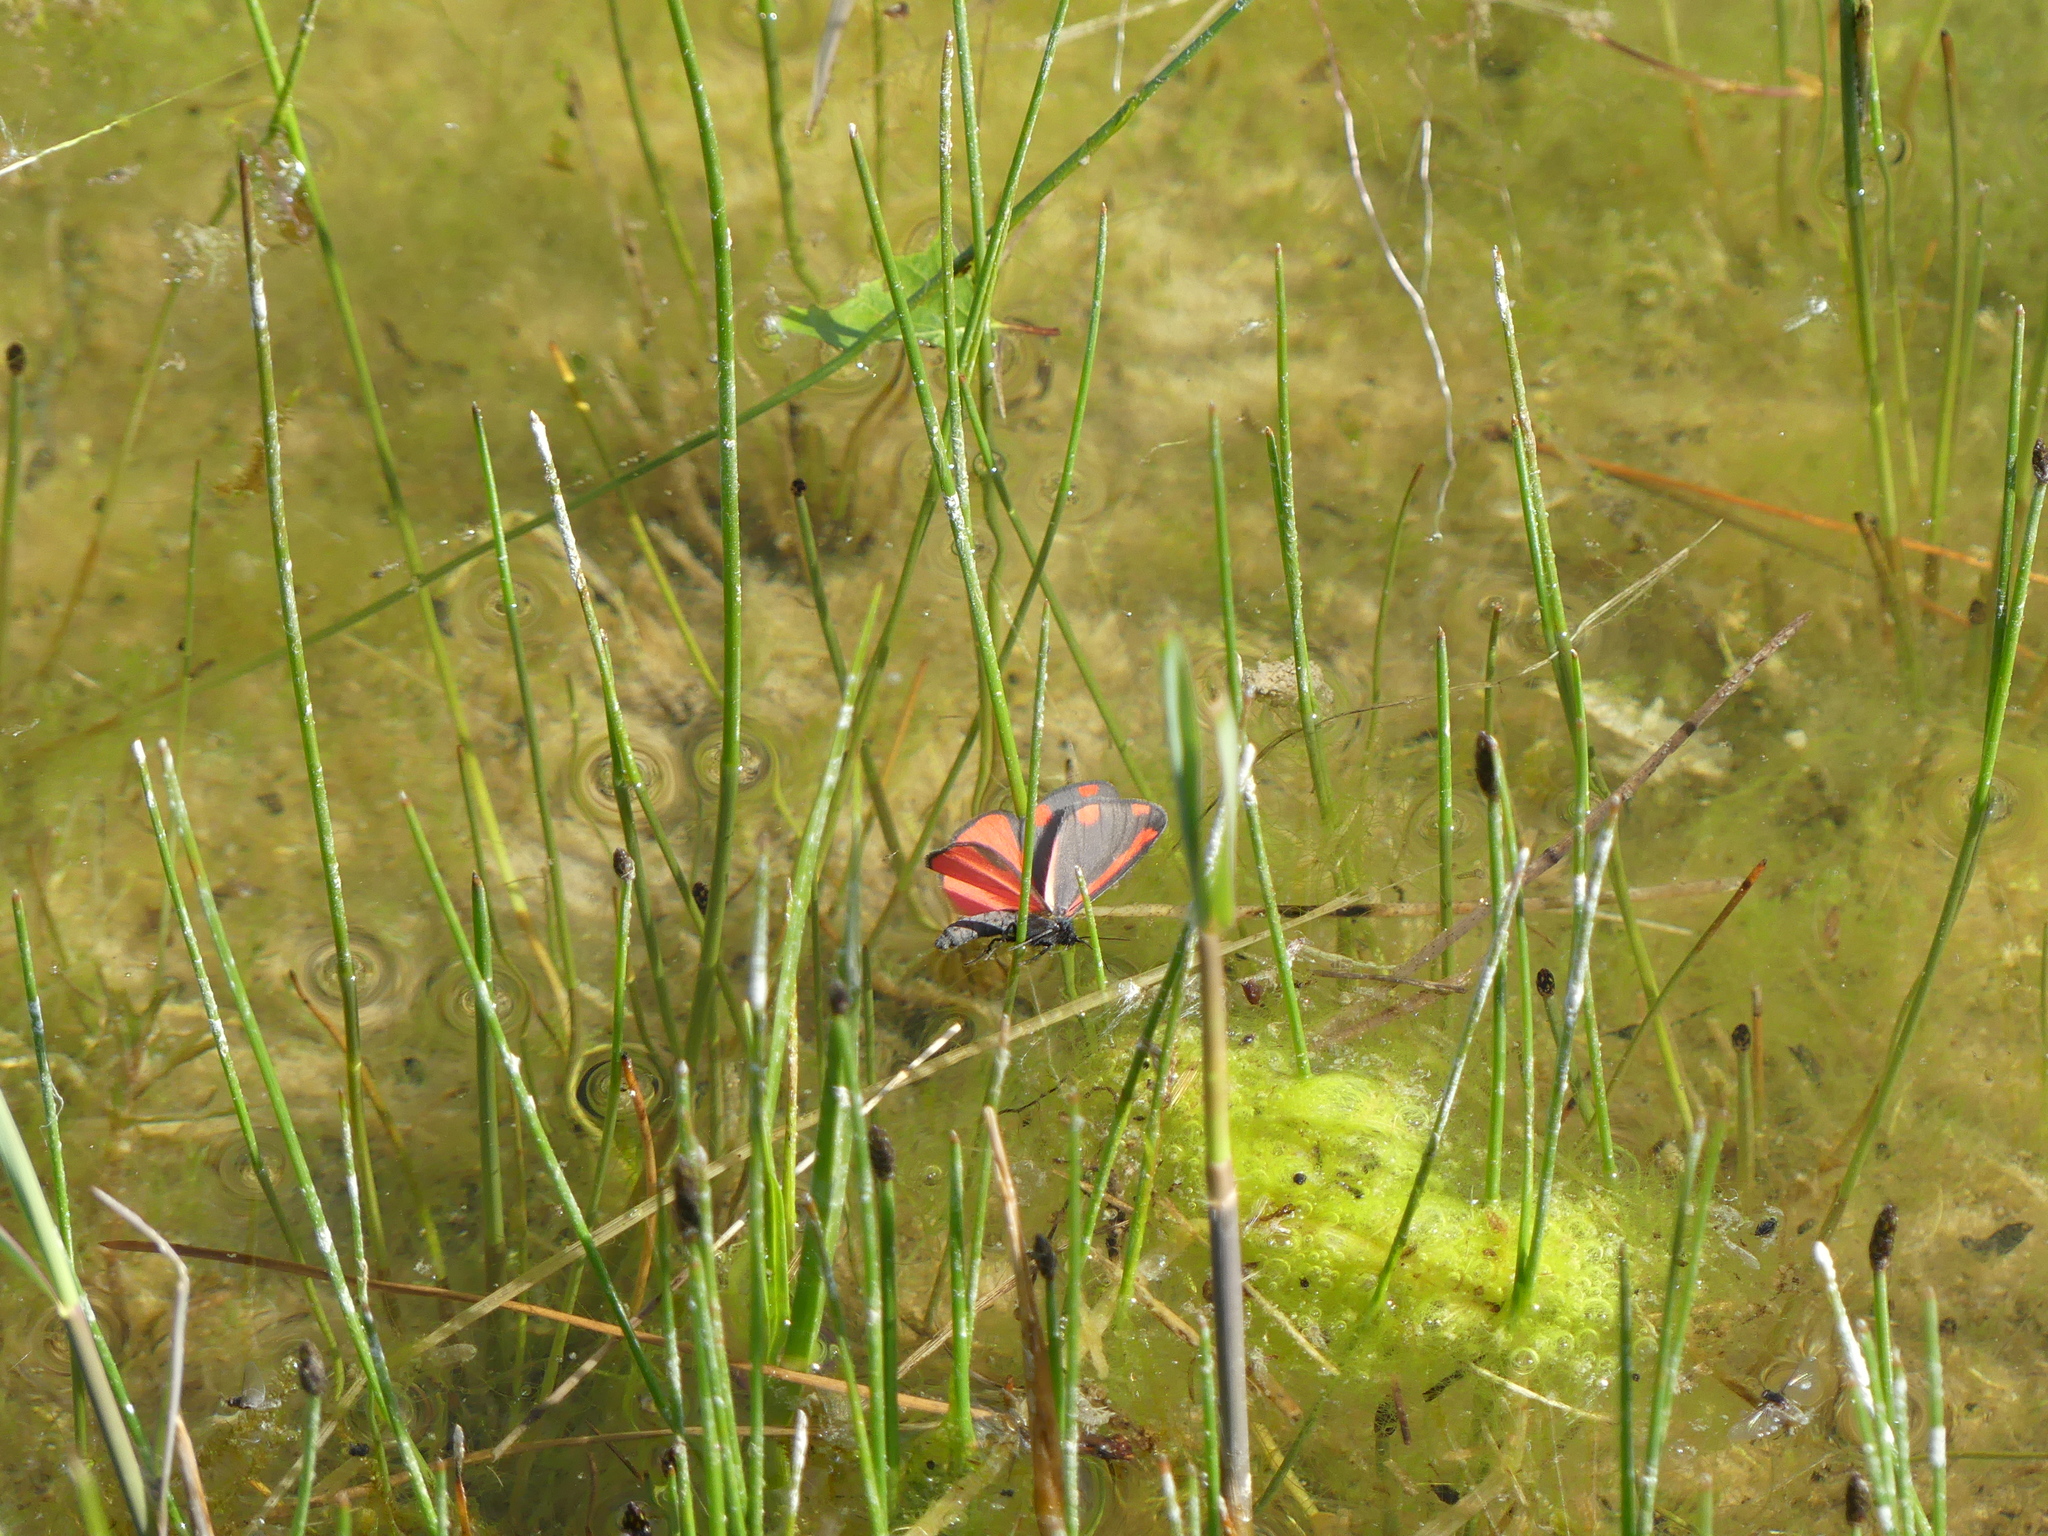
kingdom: Animalia
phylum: Arthropoda
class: Insecta
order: Lepidoptera
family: Erebidae
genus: Tyria
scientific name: Tyria jacobaeae
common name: Cinnabar
